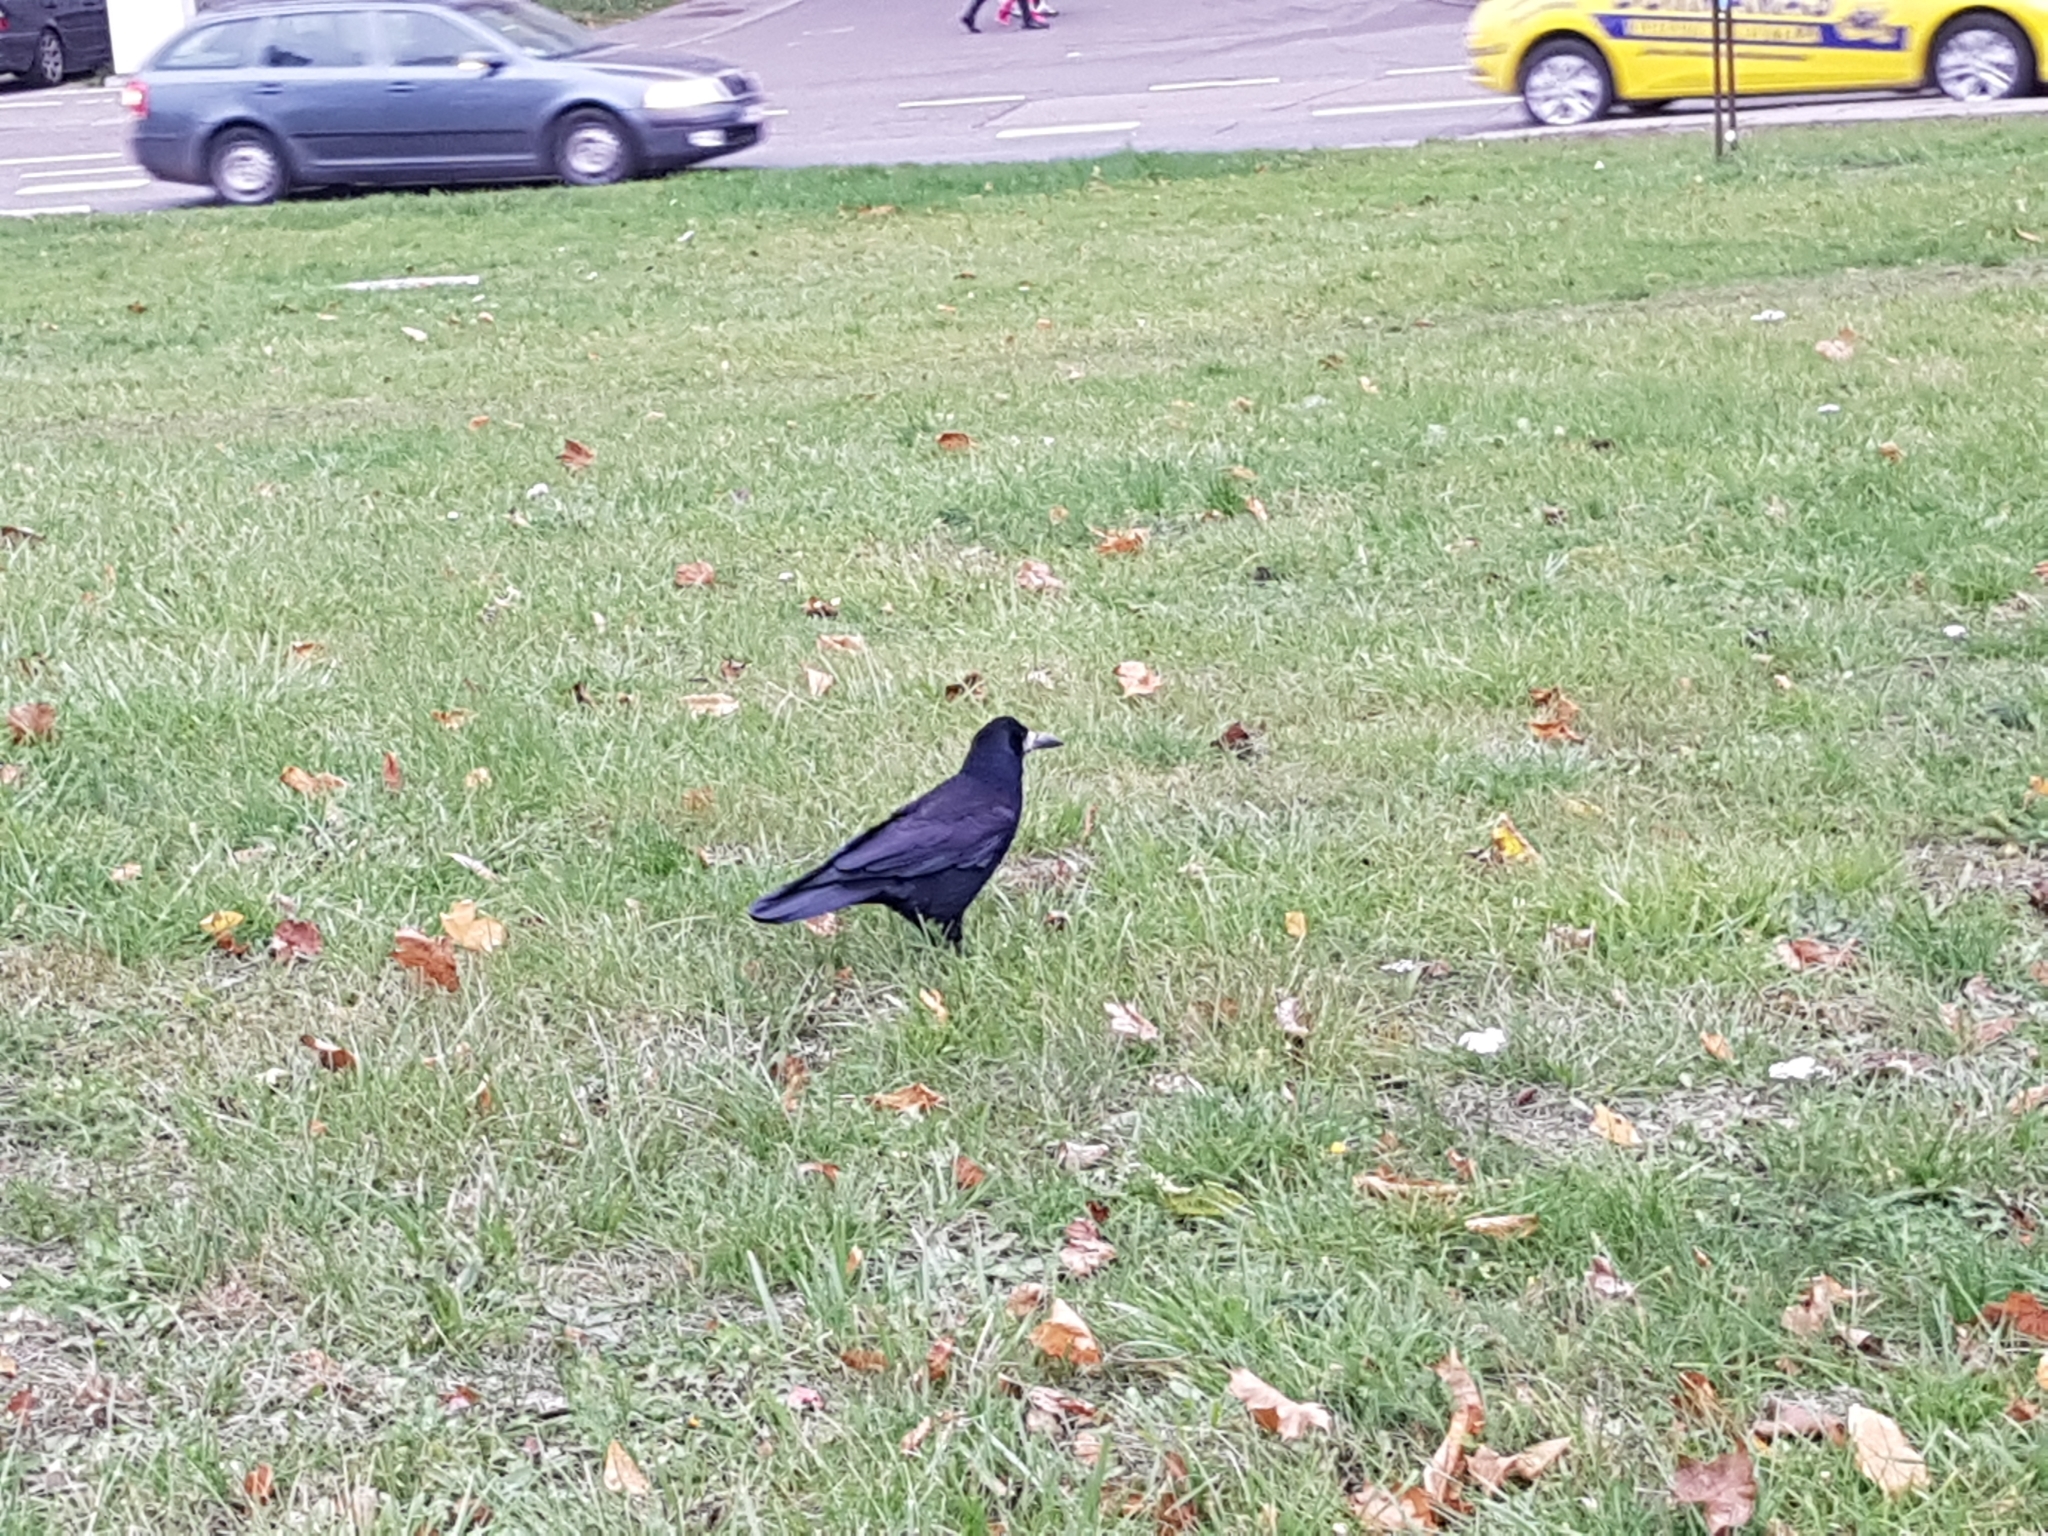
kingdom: Animalia
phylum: Chordata
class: Aves
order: Passeriformes
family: Corvidae
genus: Corvus
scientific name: Corvus frugilegus
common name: Rook
